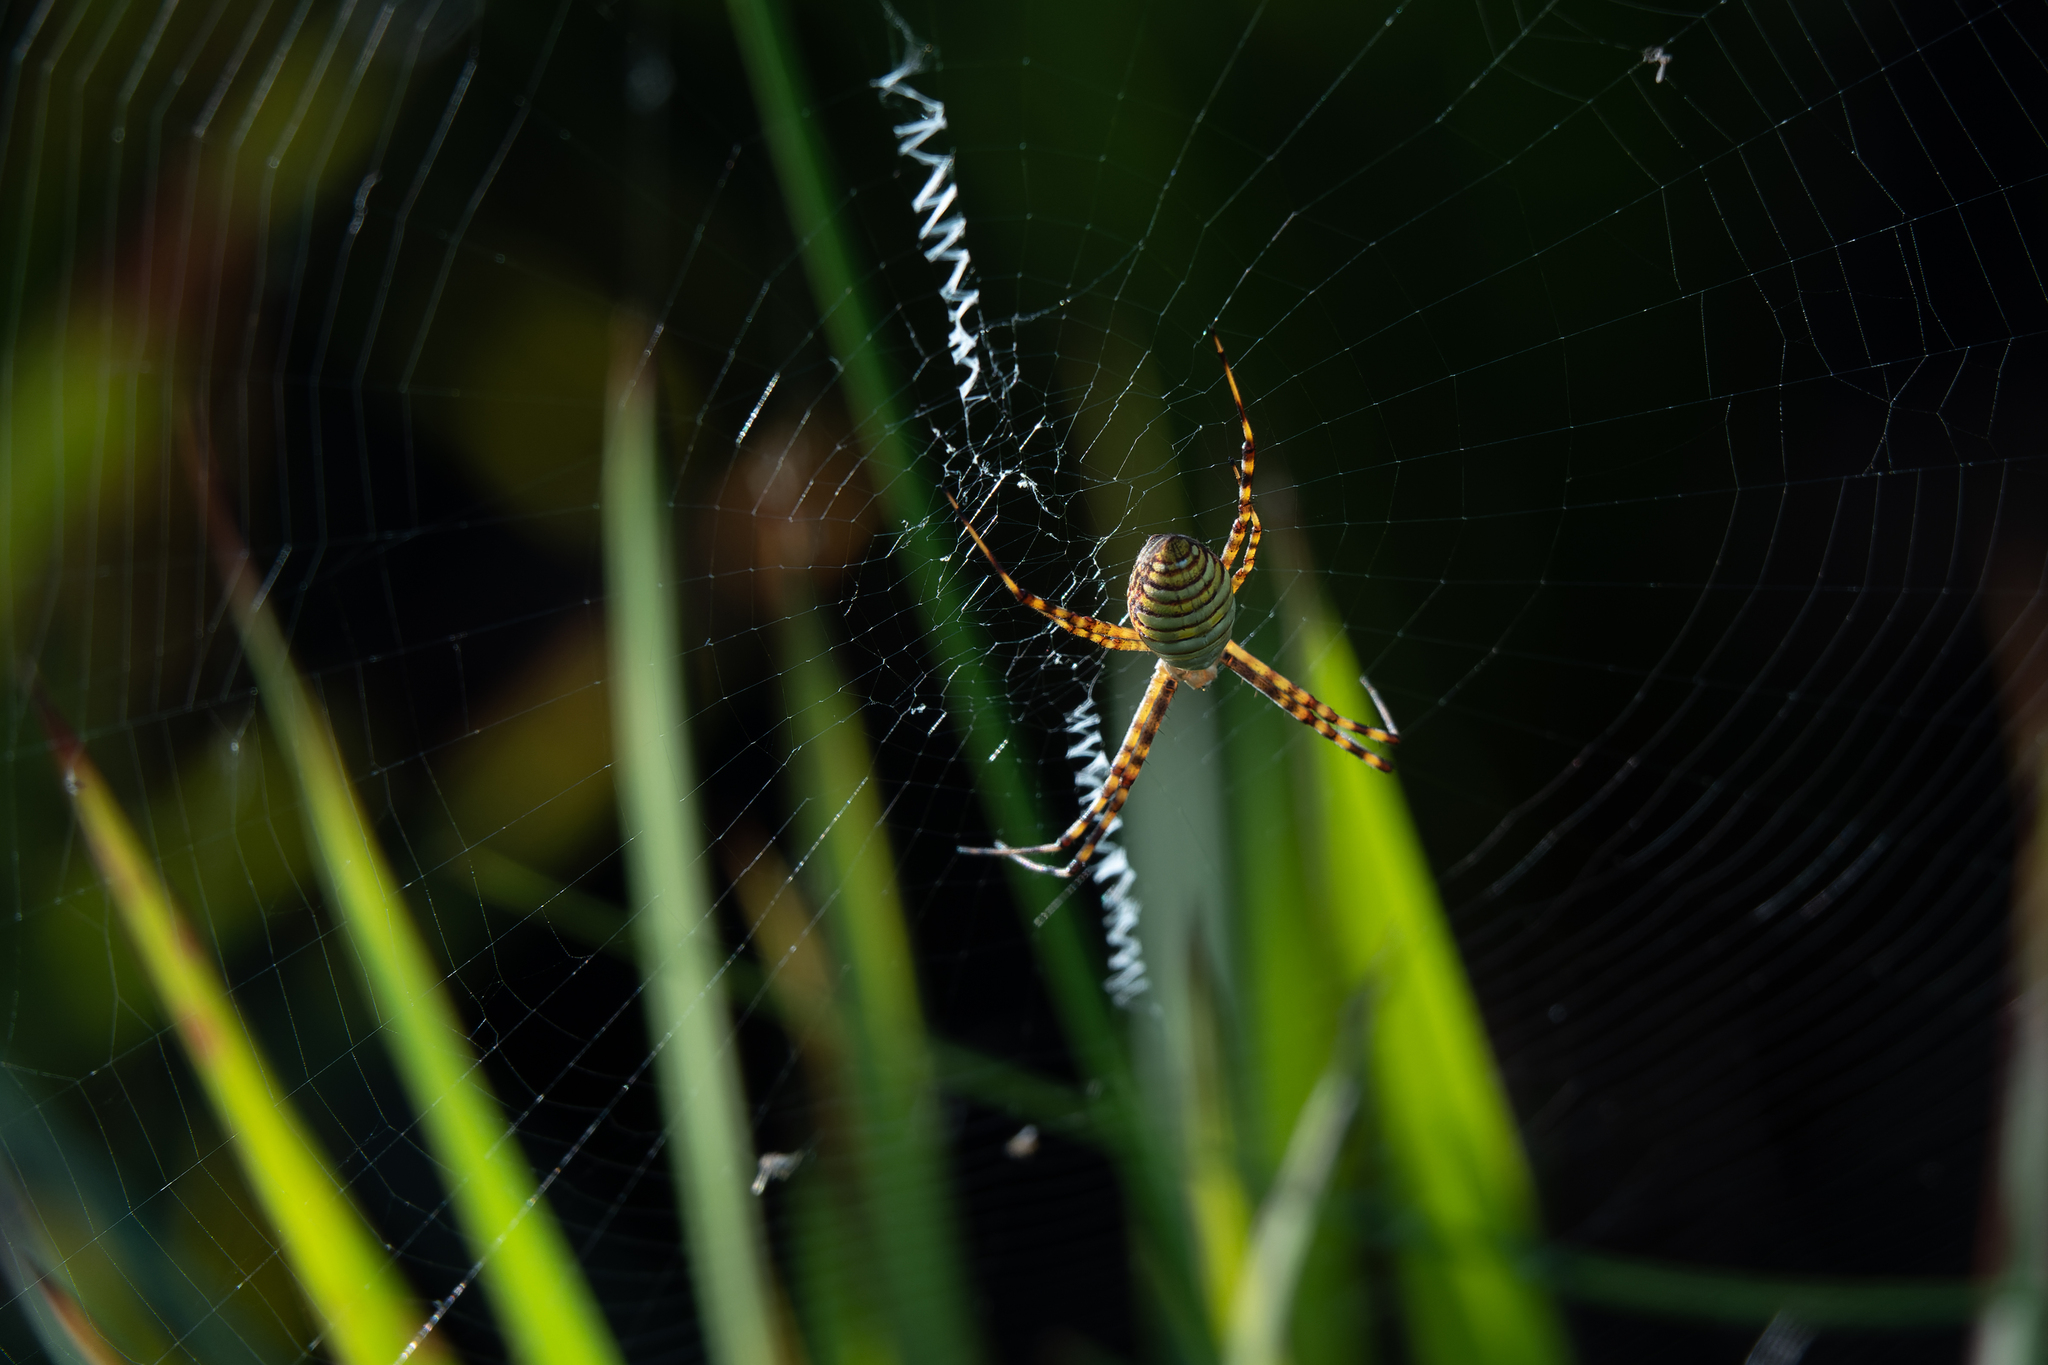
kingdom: Animalia
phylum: Arthropoda
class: Arachnida
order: Araneae
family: Araneidae
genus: Argiope
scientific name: Argiope trifasciata
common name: Banded garden spider
